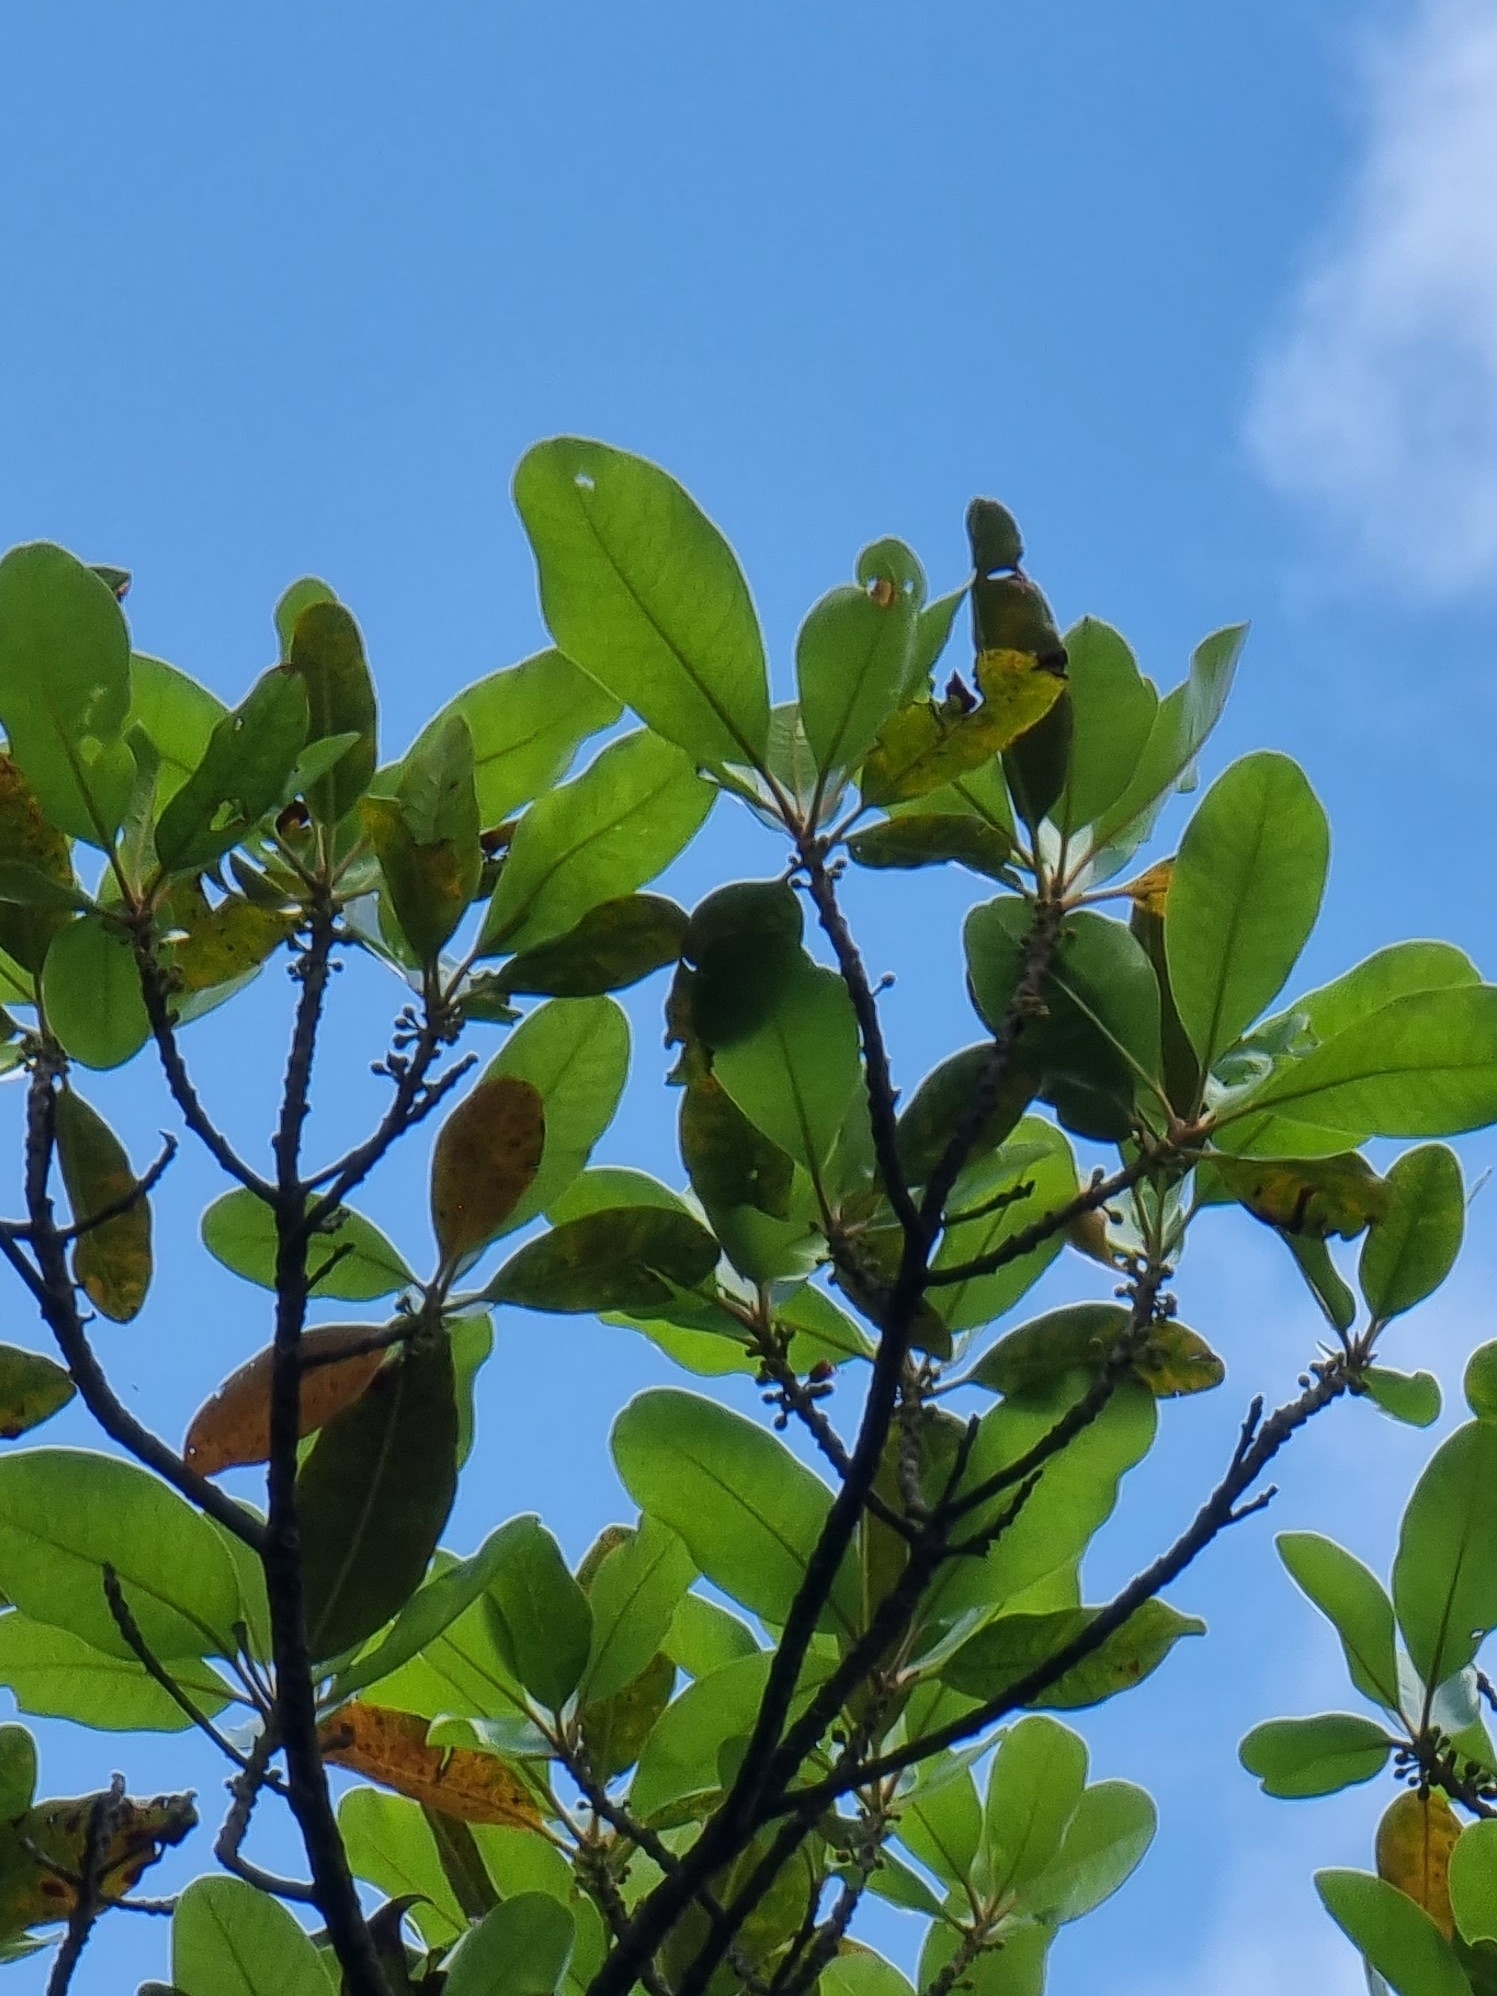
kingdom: Plantae
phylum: Tracheophyta
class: Magnoliopsida
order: Ericales
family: Sapotaceae
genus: Sideroxylon
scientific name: Sideroxylon mirmulans
